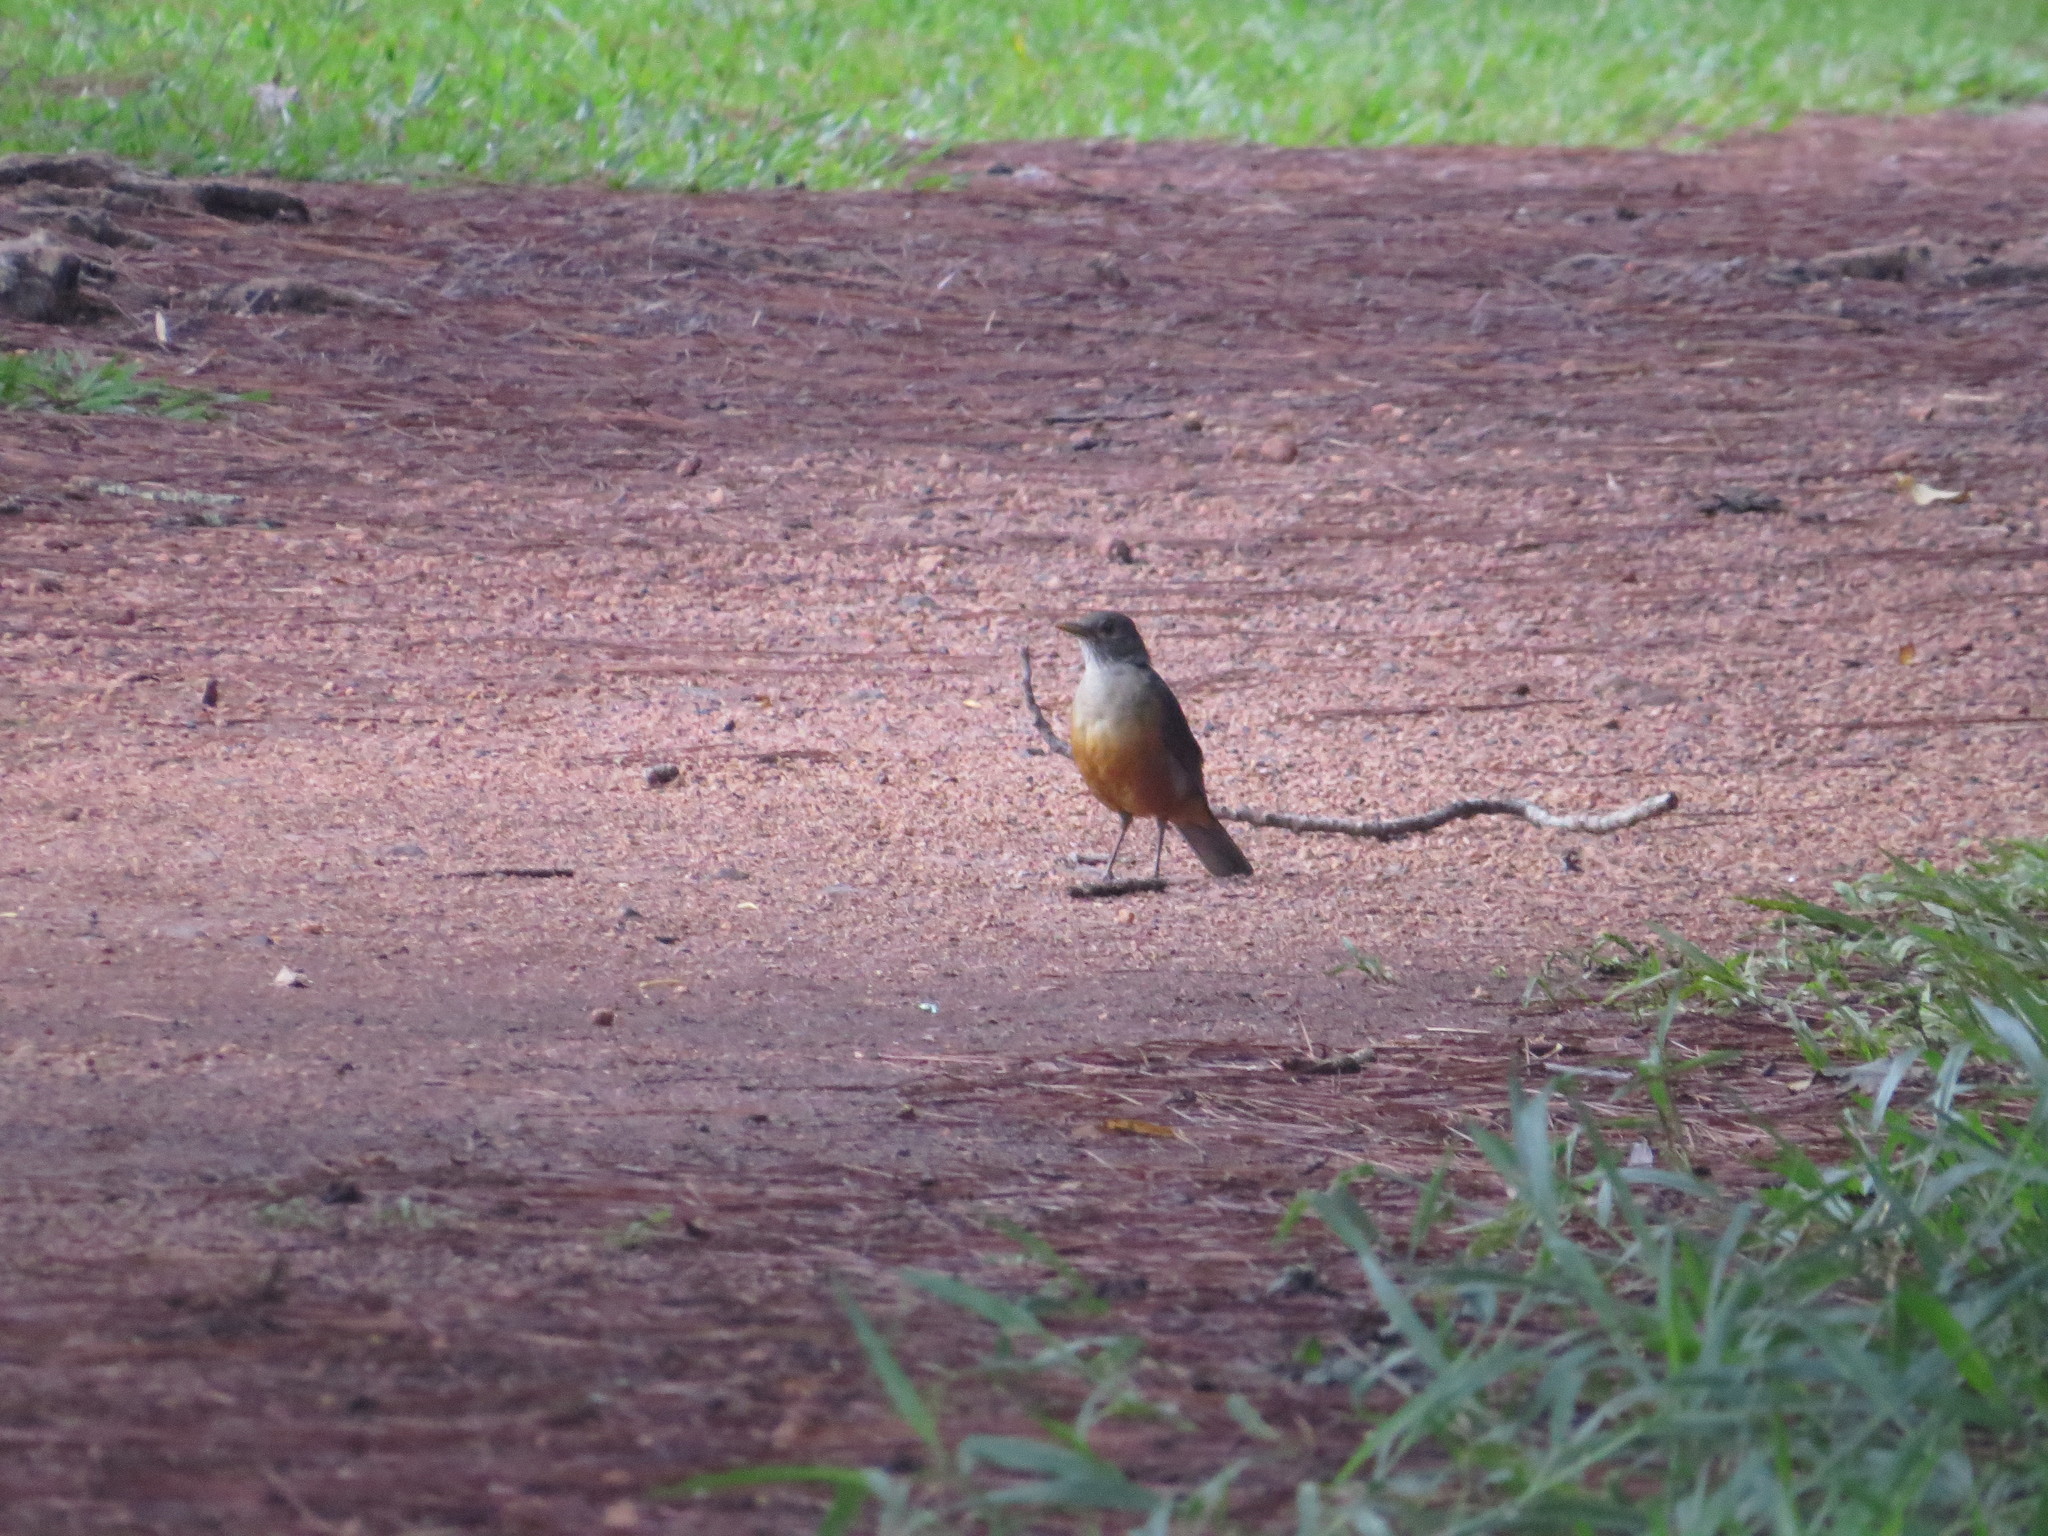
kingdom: Animalia
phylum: Chordata
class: Aves
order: Passeriformes
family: Turdidae
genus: Turdus
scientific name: Turdus rufiventris
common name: Rufous-bellied thrush
